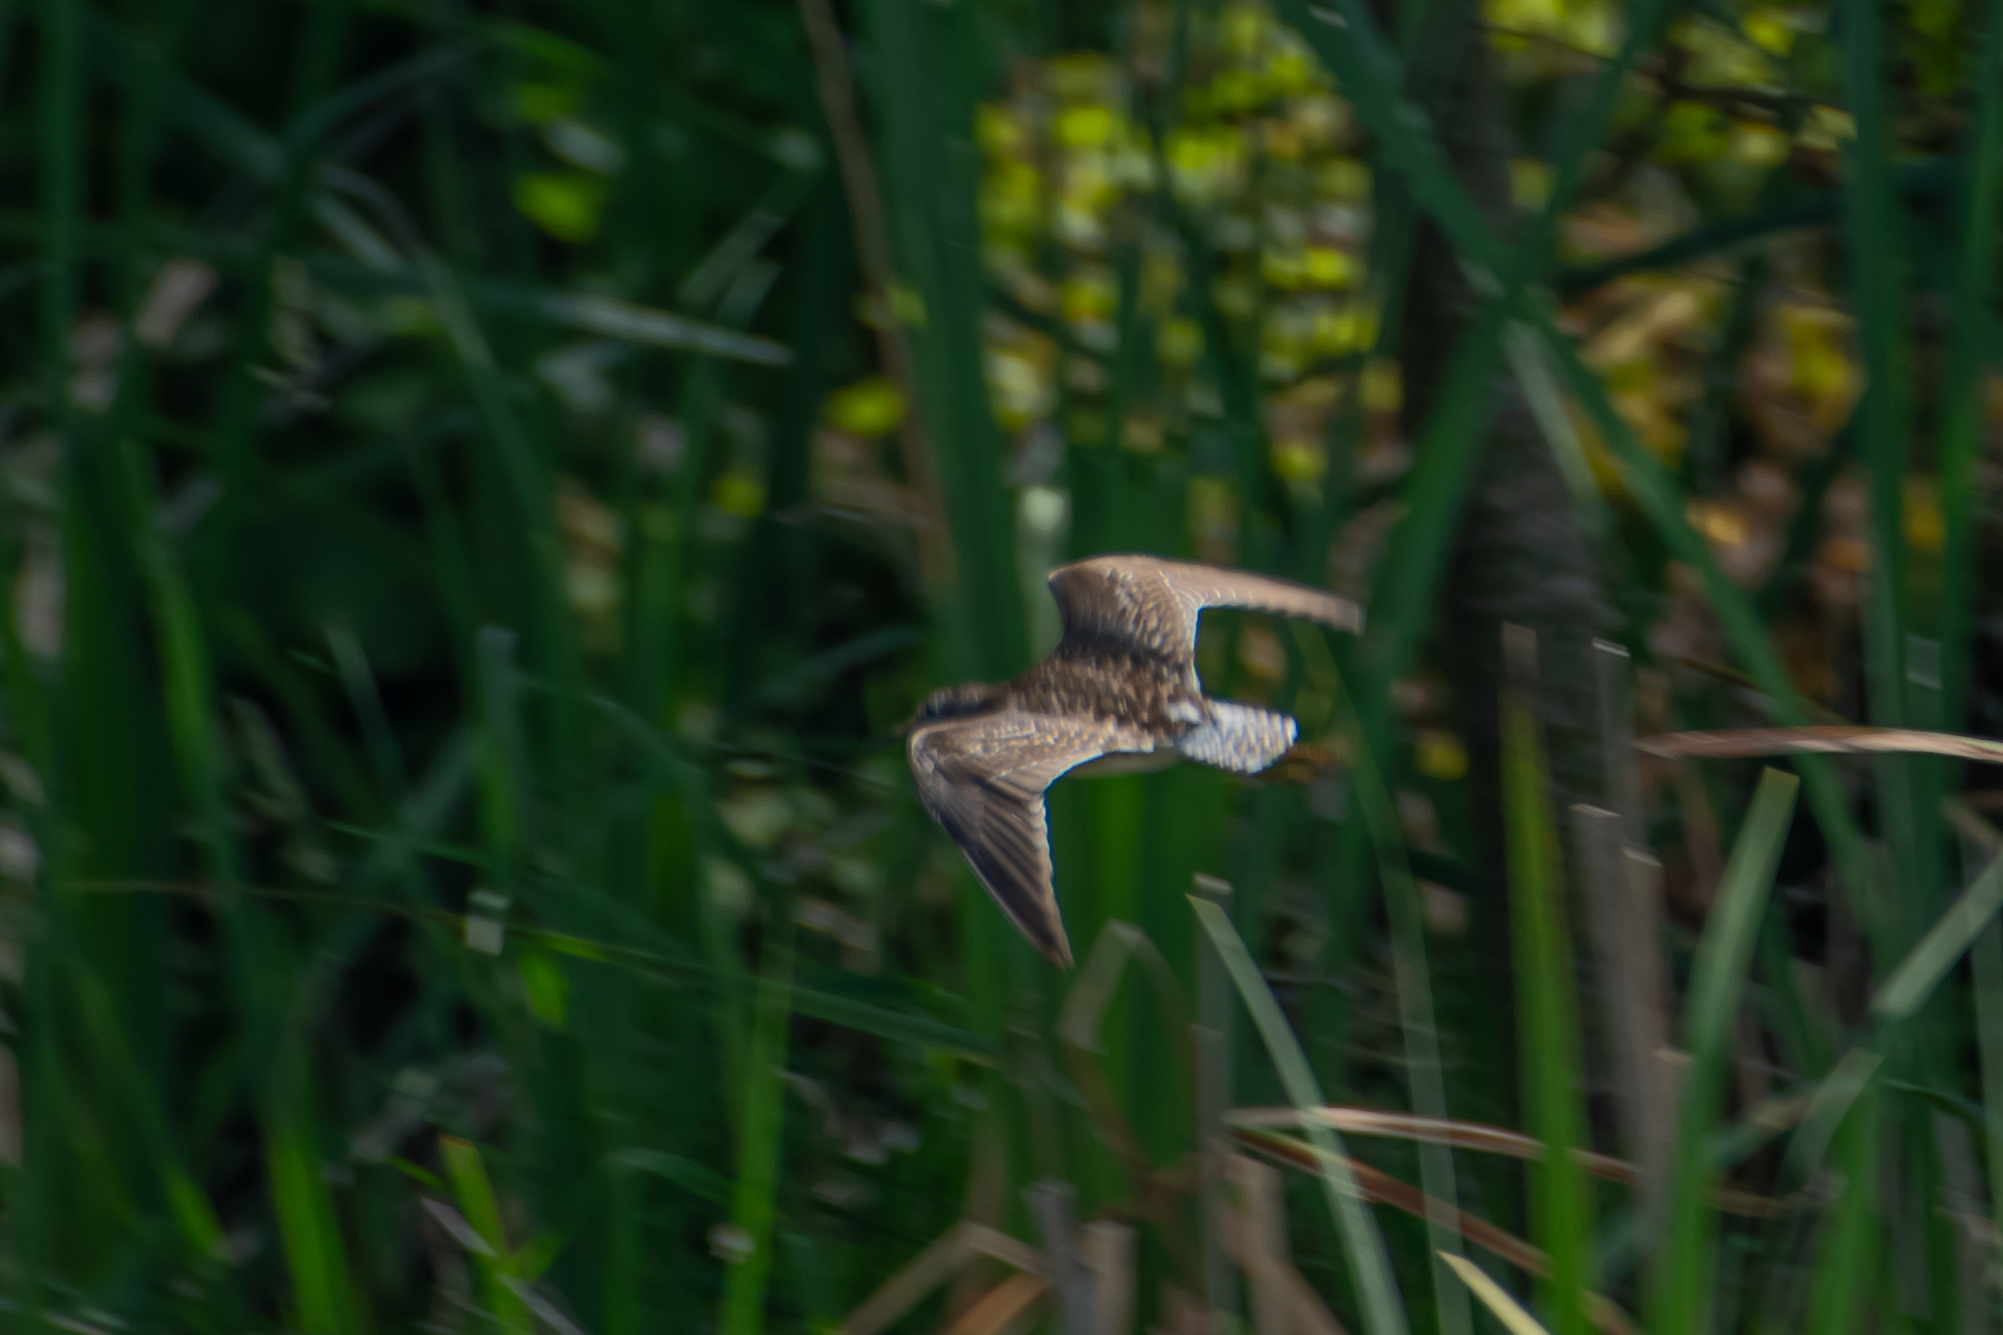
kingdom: Animalia
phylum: Chordata
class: Aves
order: Charadriiformes
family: Scolopacidae
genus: Tringa
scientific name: Tringa glareola
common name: Wood sandpiper
